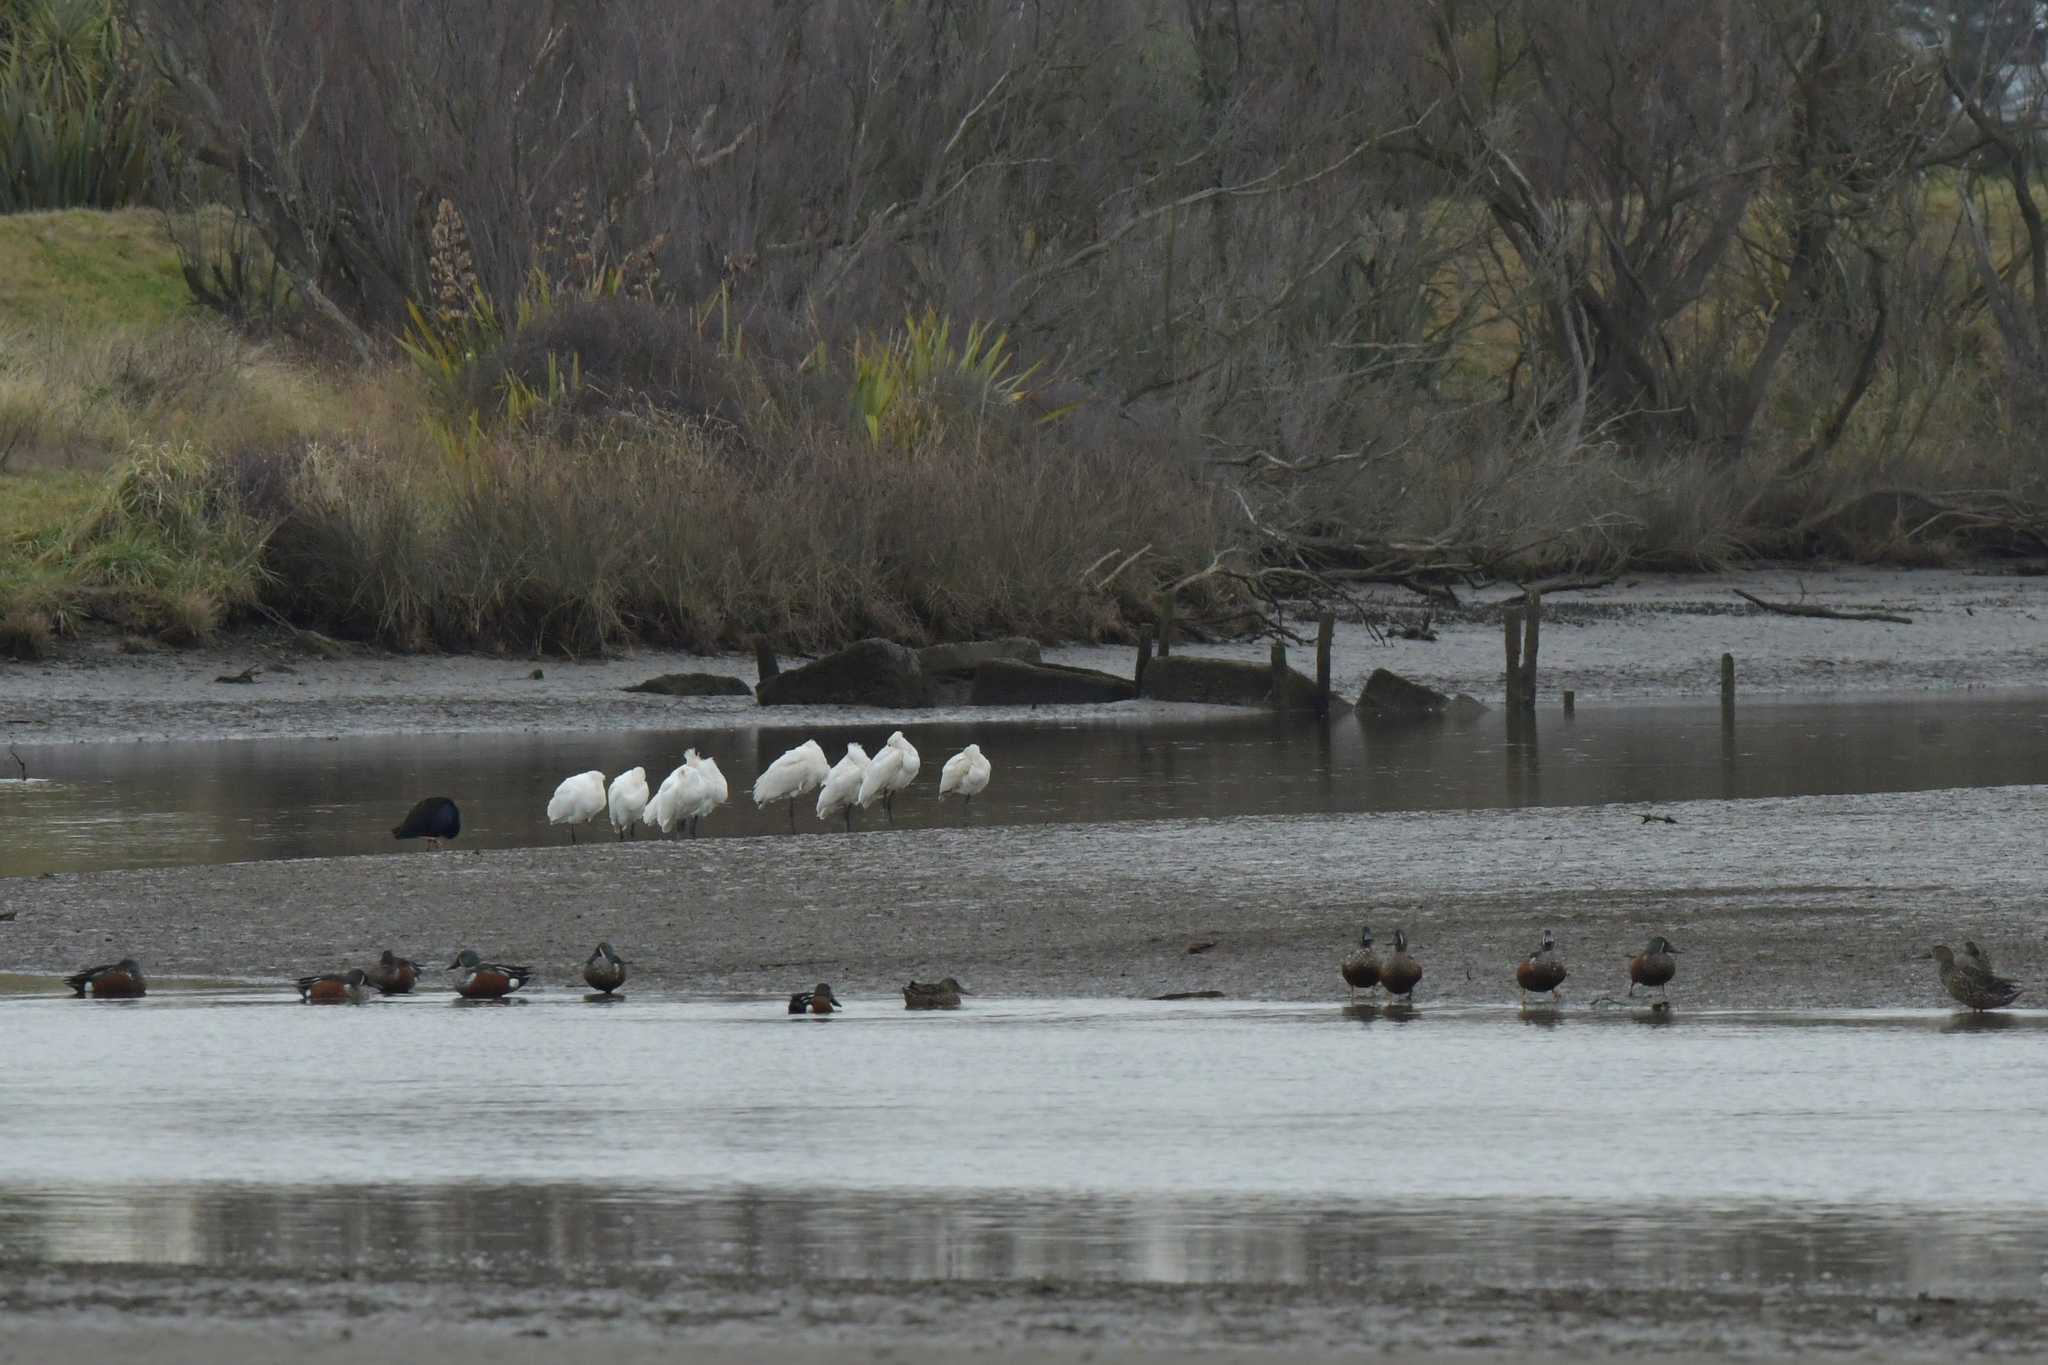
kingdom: Animalia
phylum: Chordata
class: Aves
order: Pelecaniformes
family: Threskiornithidae
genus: Platalea
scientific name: Platalea regia
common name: Royal spoonbill
